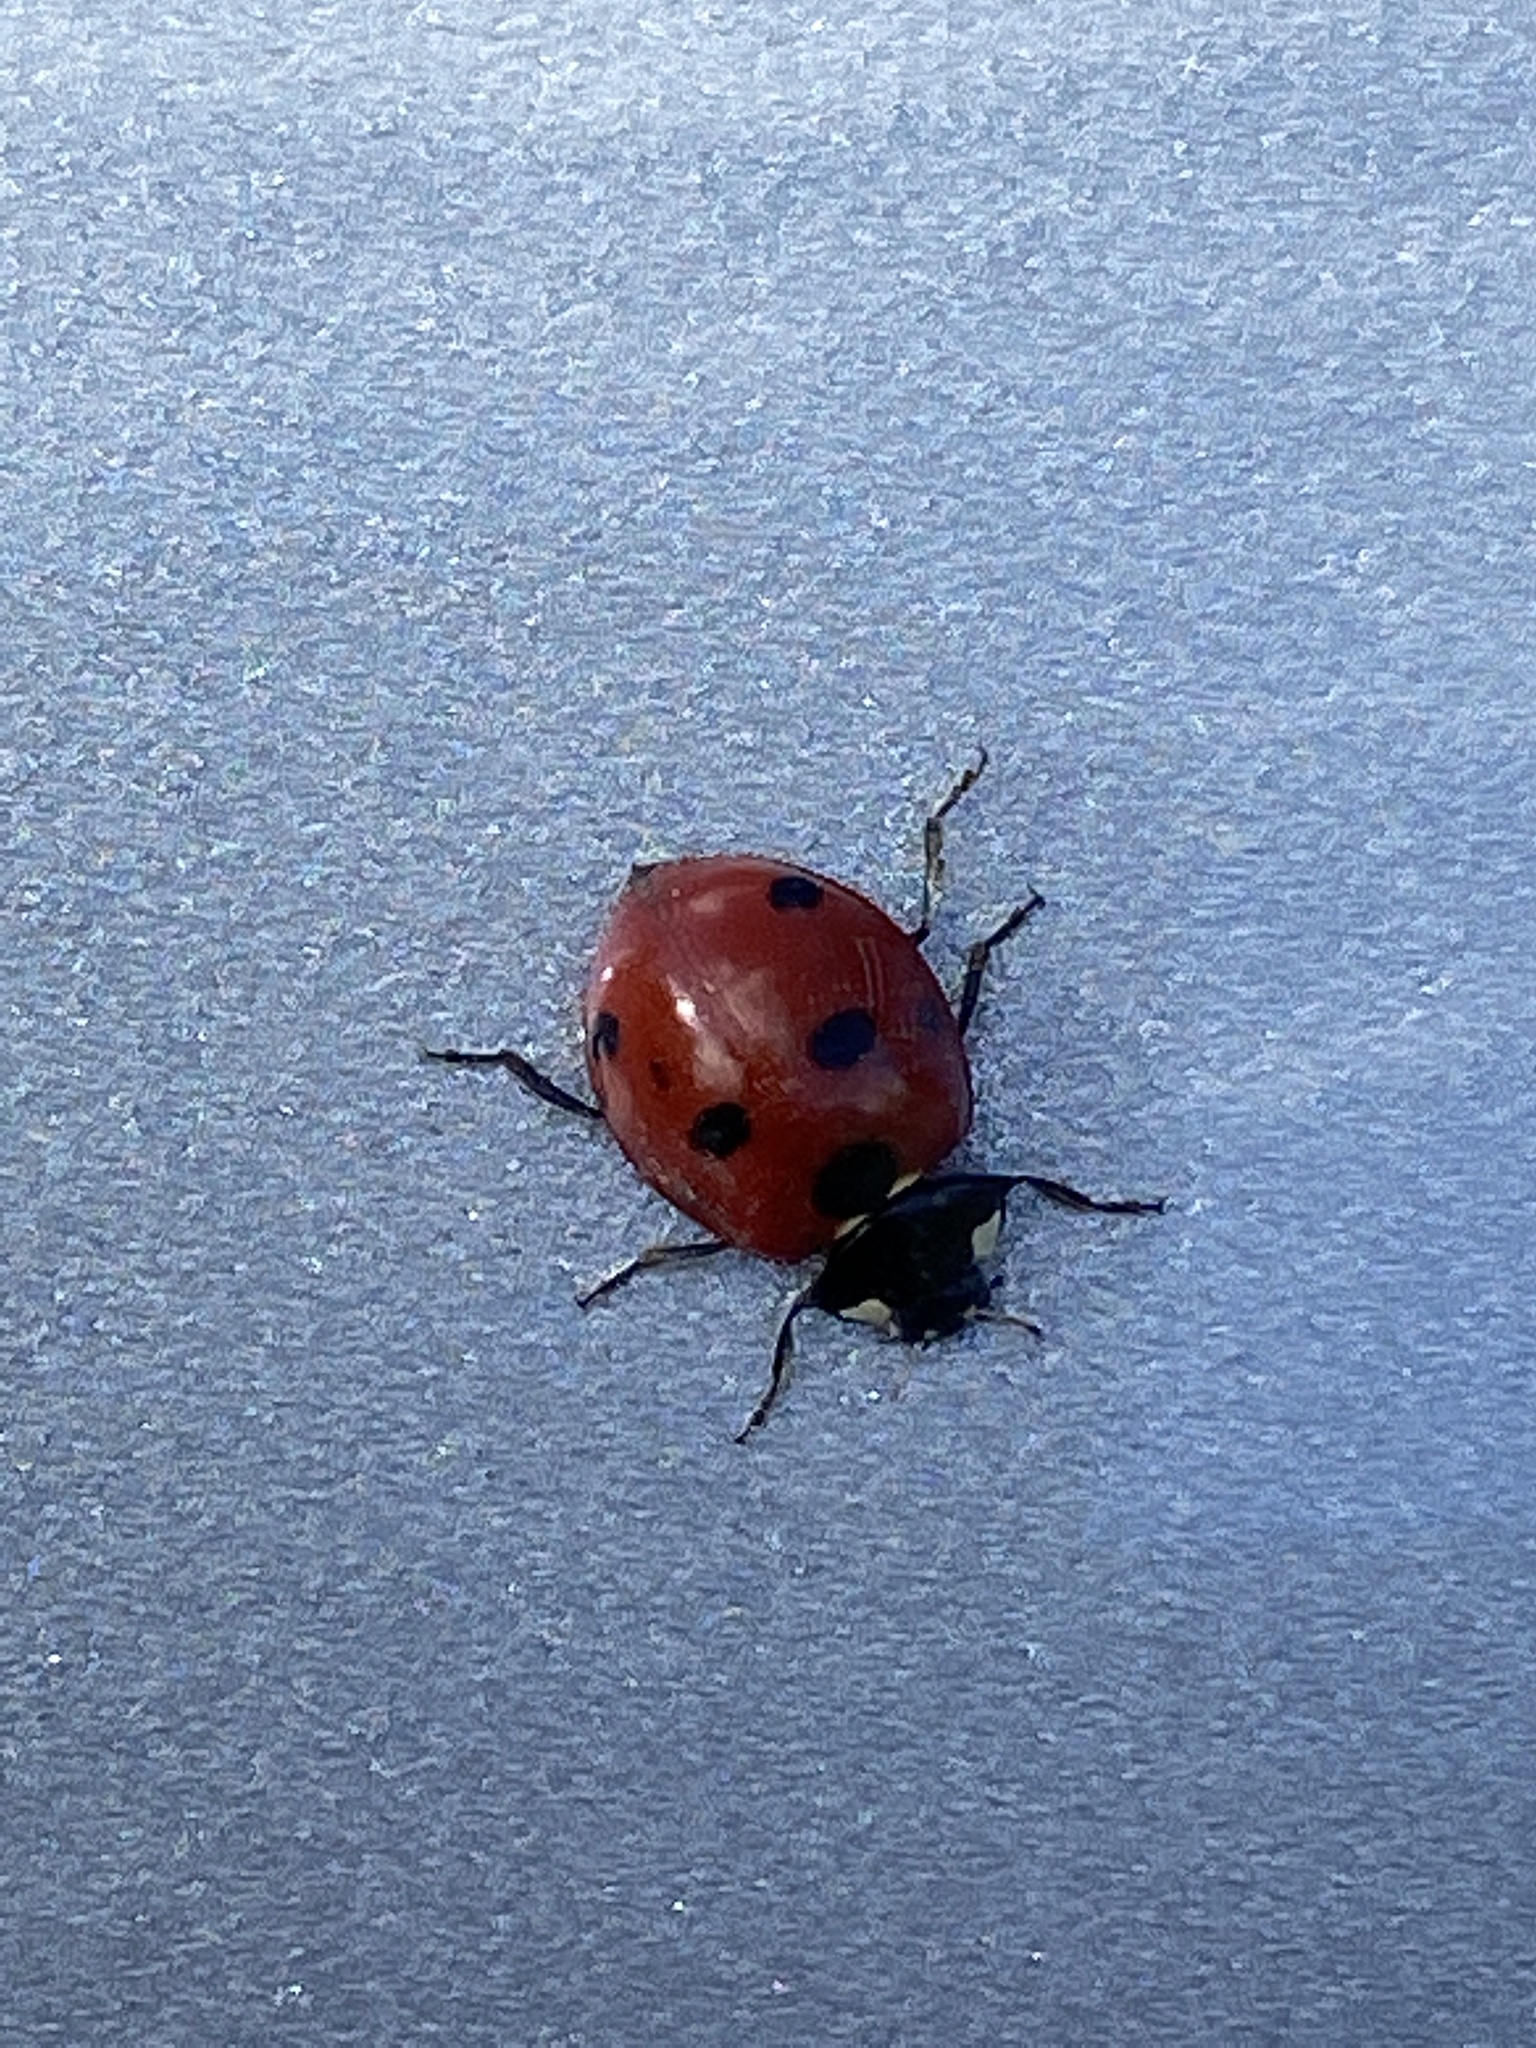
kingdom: Animalia
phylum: Arthropoda
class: Insecta
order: Coleoptera
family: Coccinellidae
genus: Coccinella
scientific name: Coccinella septempunctata
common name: Sevenspotted lady beetle
